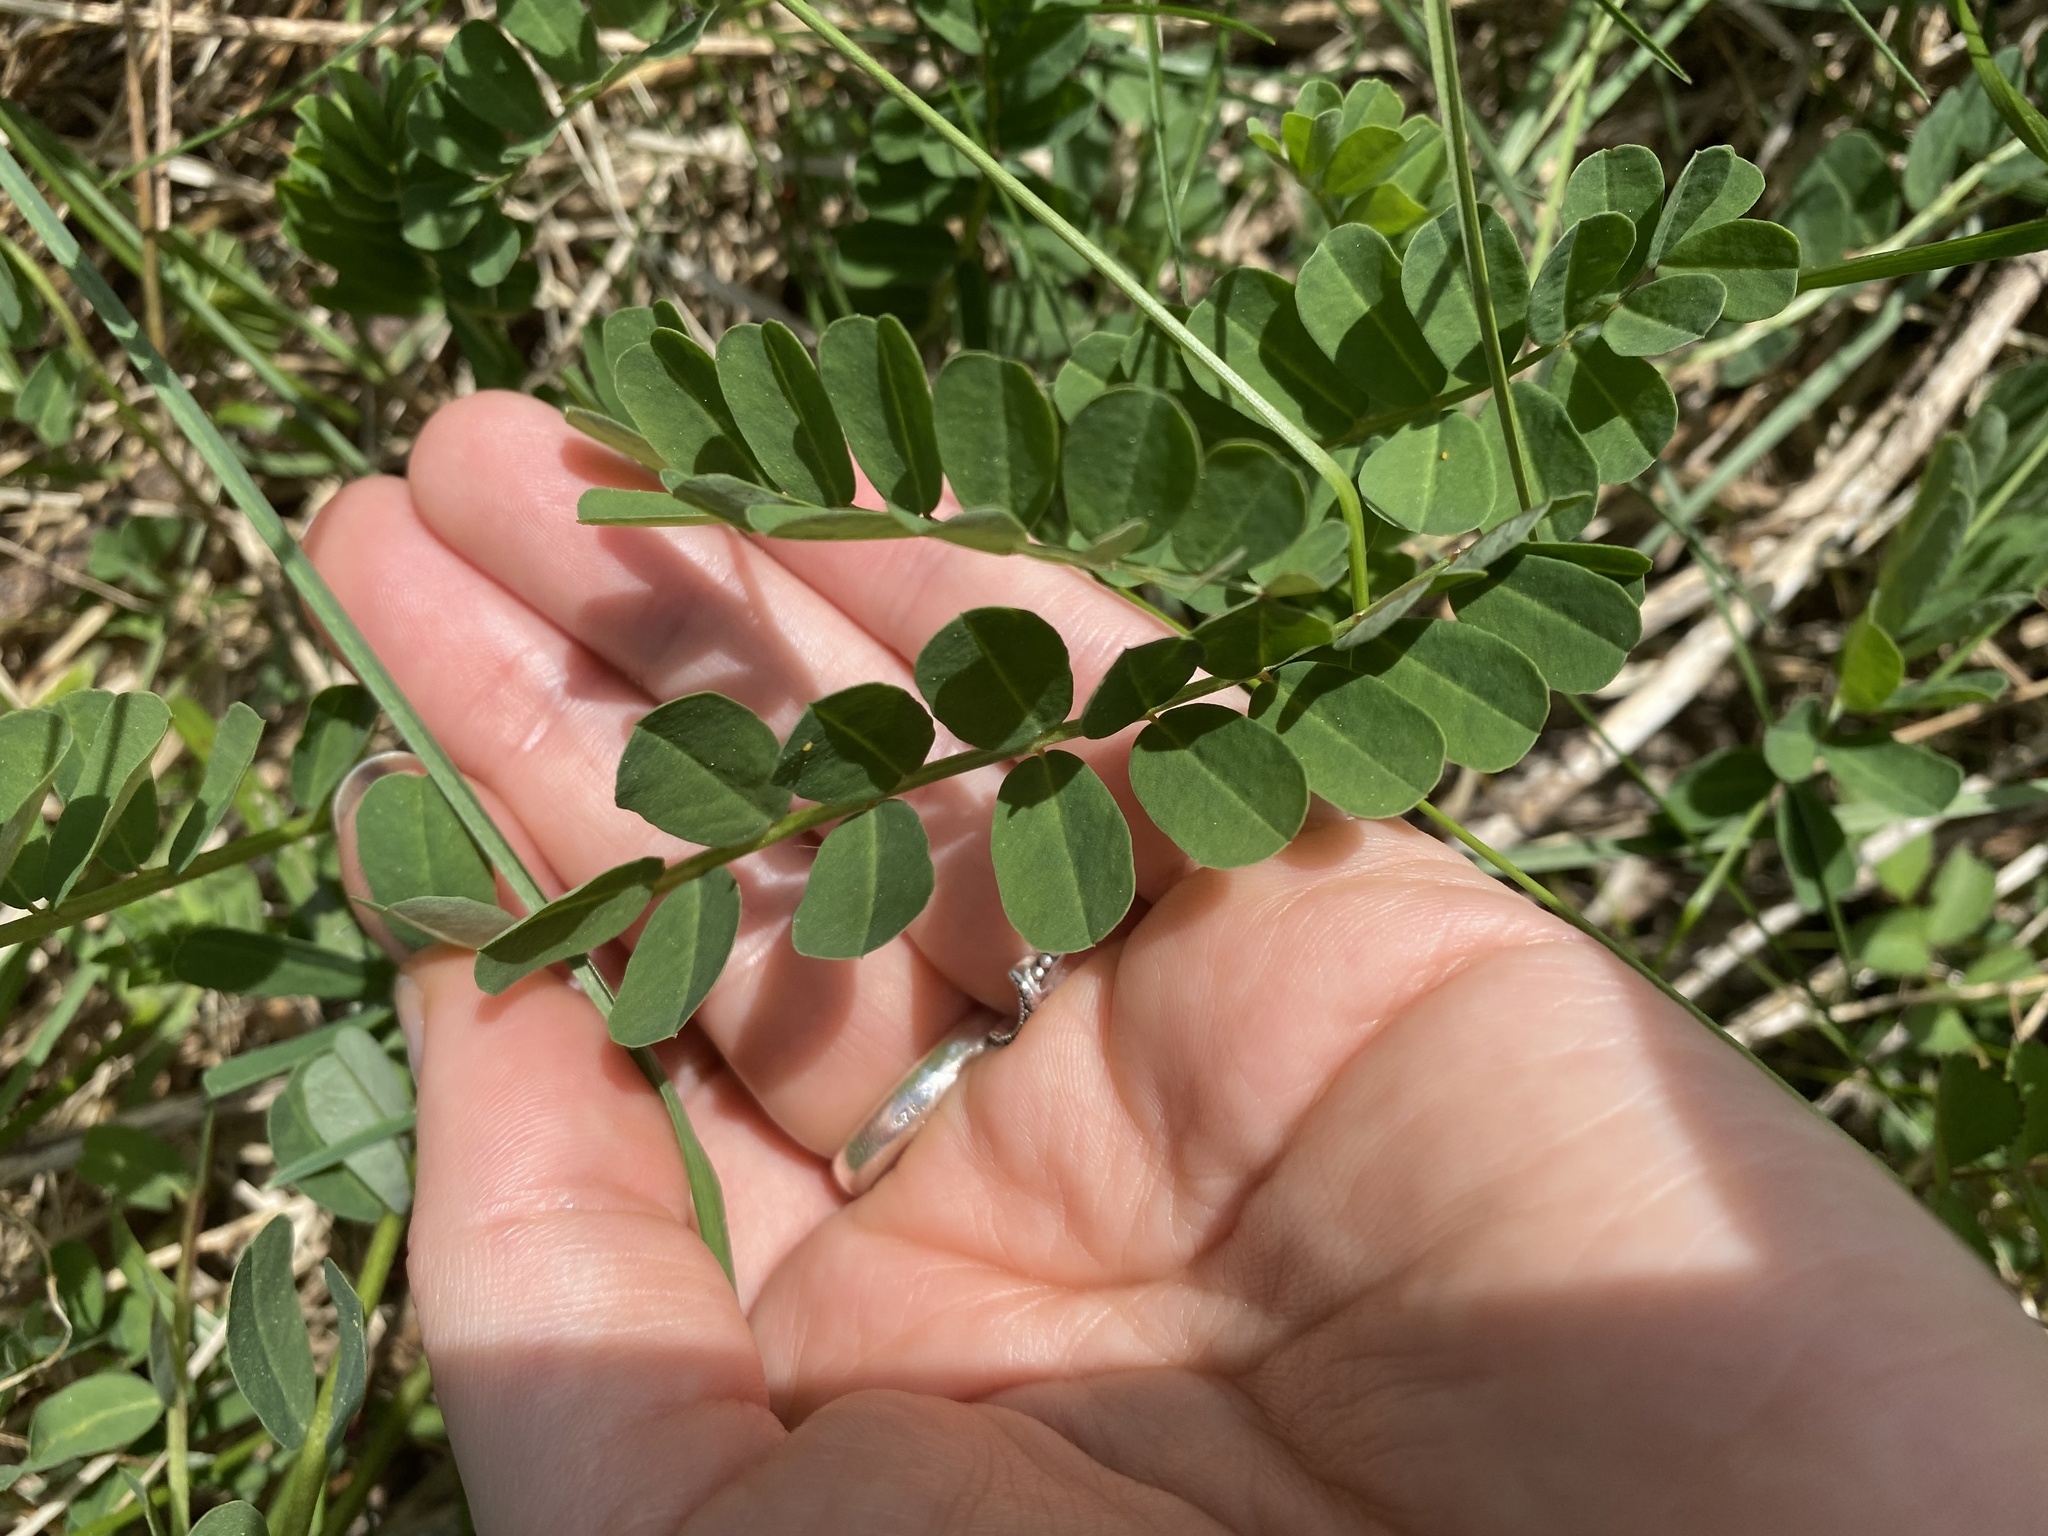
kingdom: Plantae
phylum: Tracheophyta
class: Magnoliopsida
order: Fabales
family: Fabaceae
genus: Coronilla
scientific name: Coronilla varia
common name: Crownvetch
